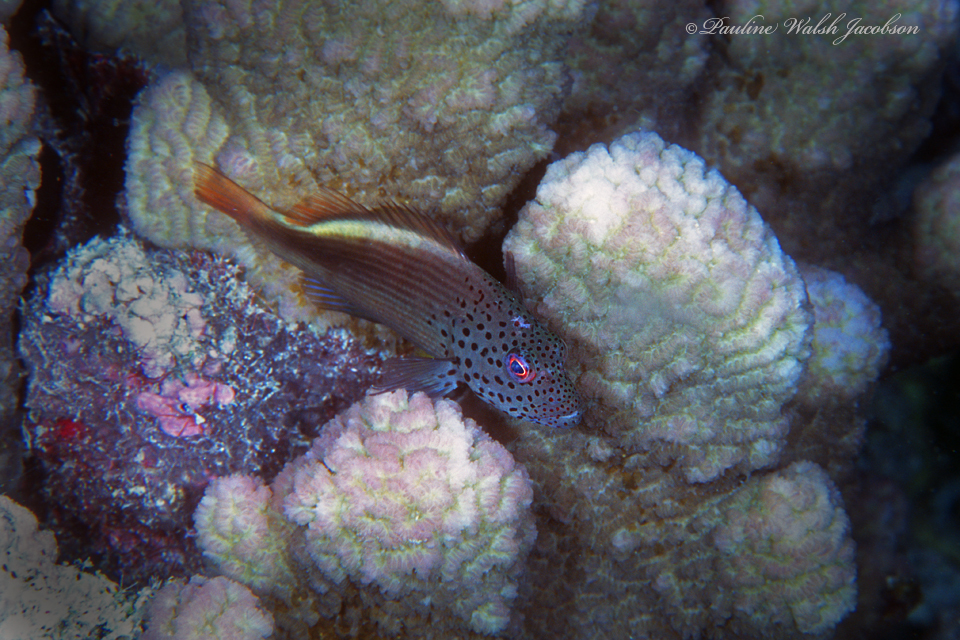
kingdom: Animalia
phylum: Chordata
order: Perciformes
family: Cirrhitidae
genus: Paracirrhites
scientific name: Paracirrhites forsteri
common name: Freckled hawkfish
